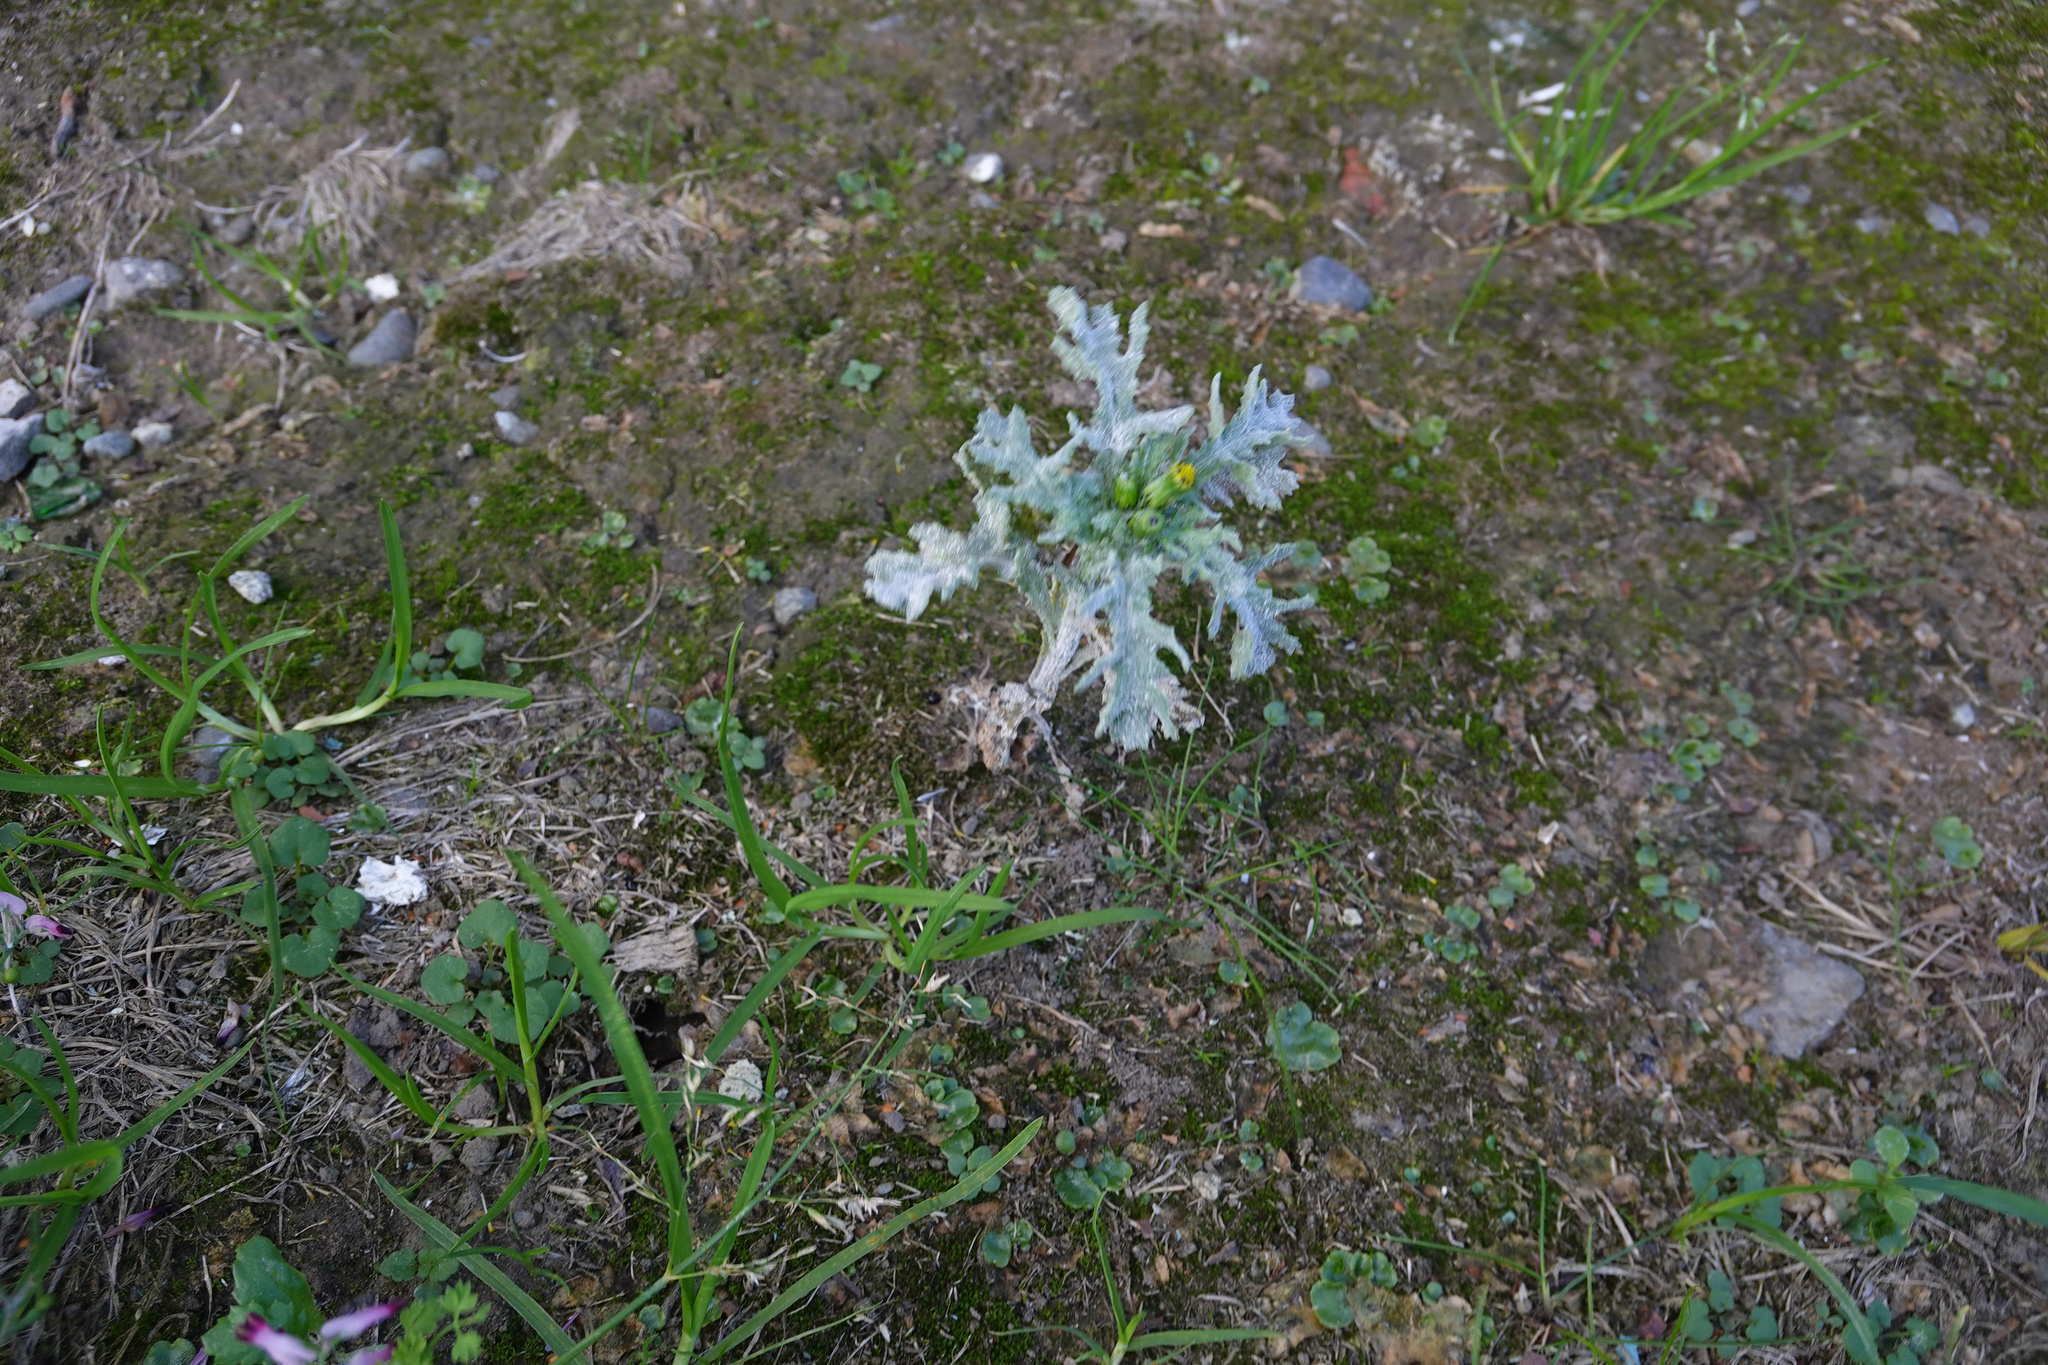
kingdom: Plantae
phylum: Tracheophyta
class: Magnoliopsida
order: Asterales
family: Asteraceae
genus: Senecio
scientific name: Senecio vulgaris
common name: Old-man-in-the-spring
